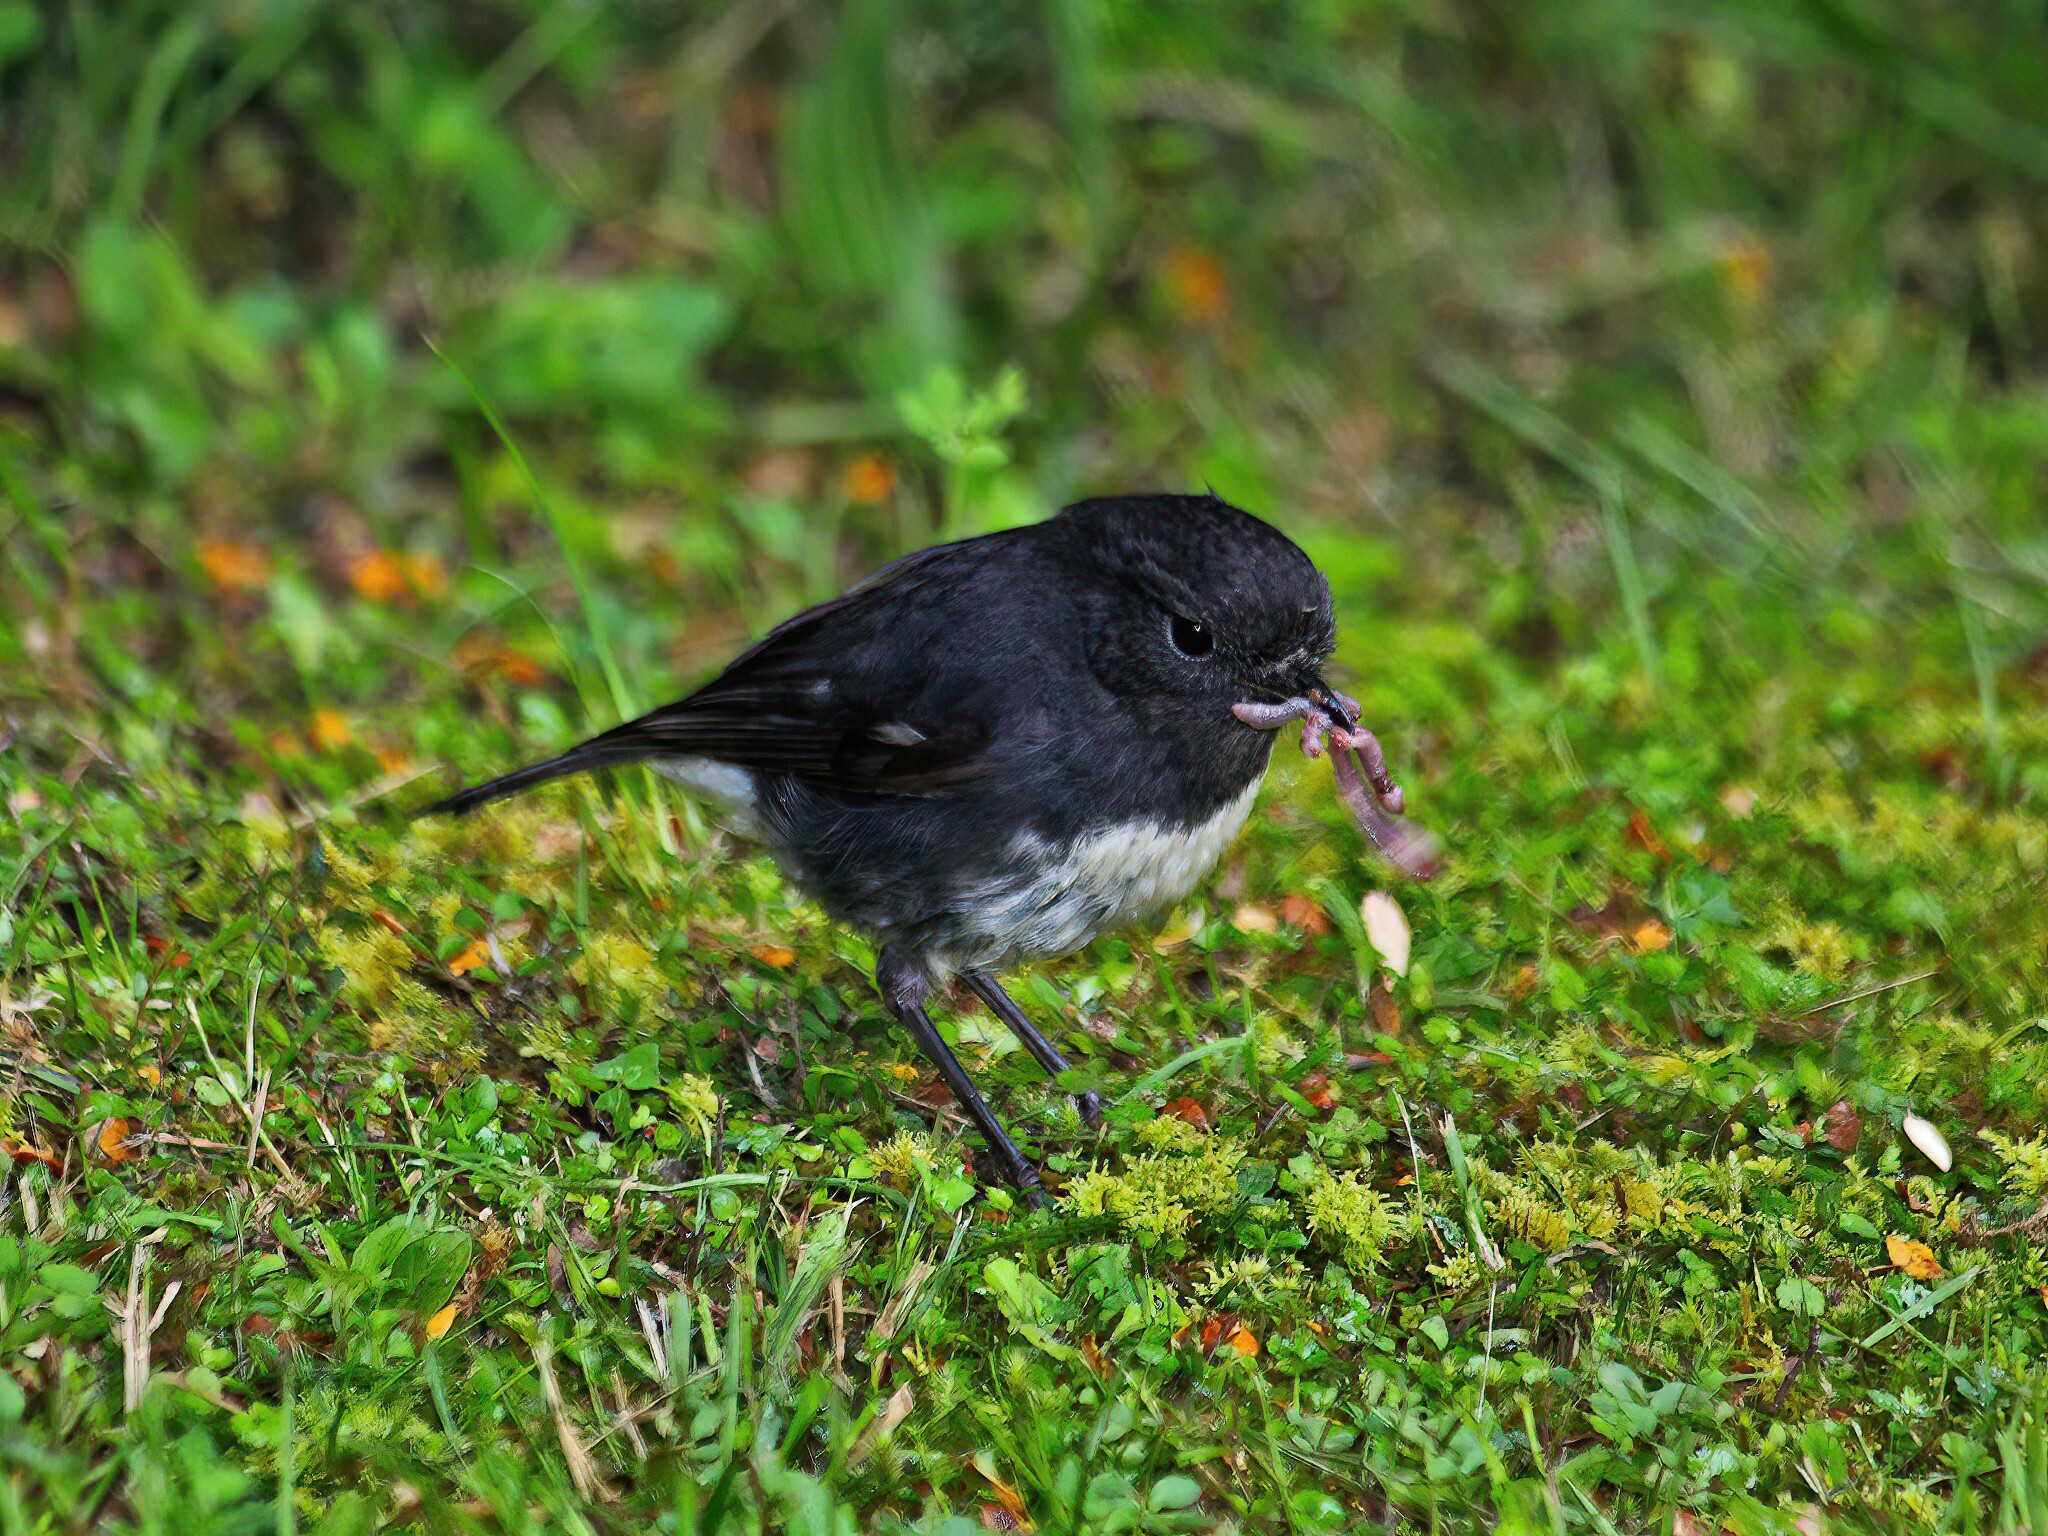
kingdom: Animalia
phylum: Chordata
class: Aves
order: Passeriformes
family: Petroicidae
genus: Petroica
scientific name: Petroica australis
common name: New zealand robin
